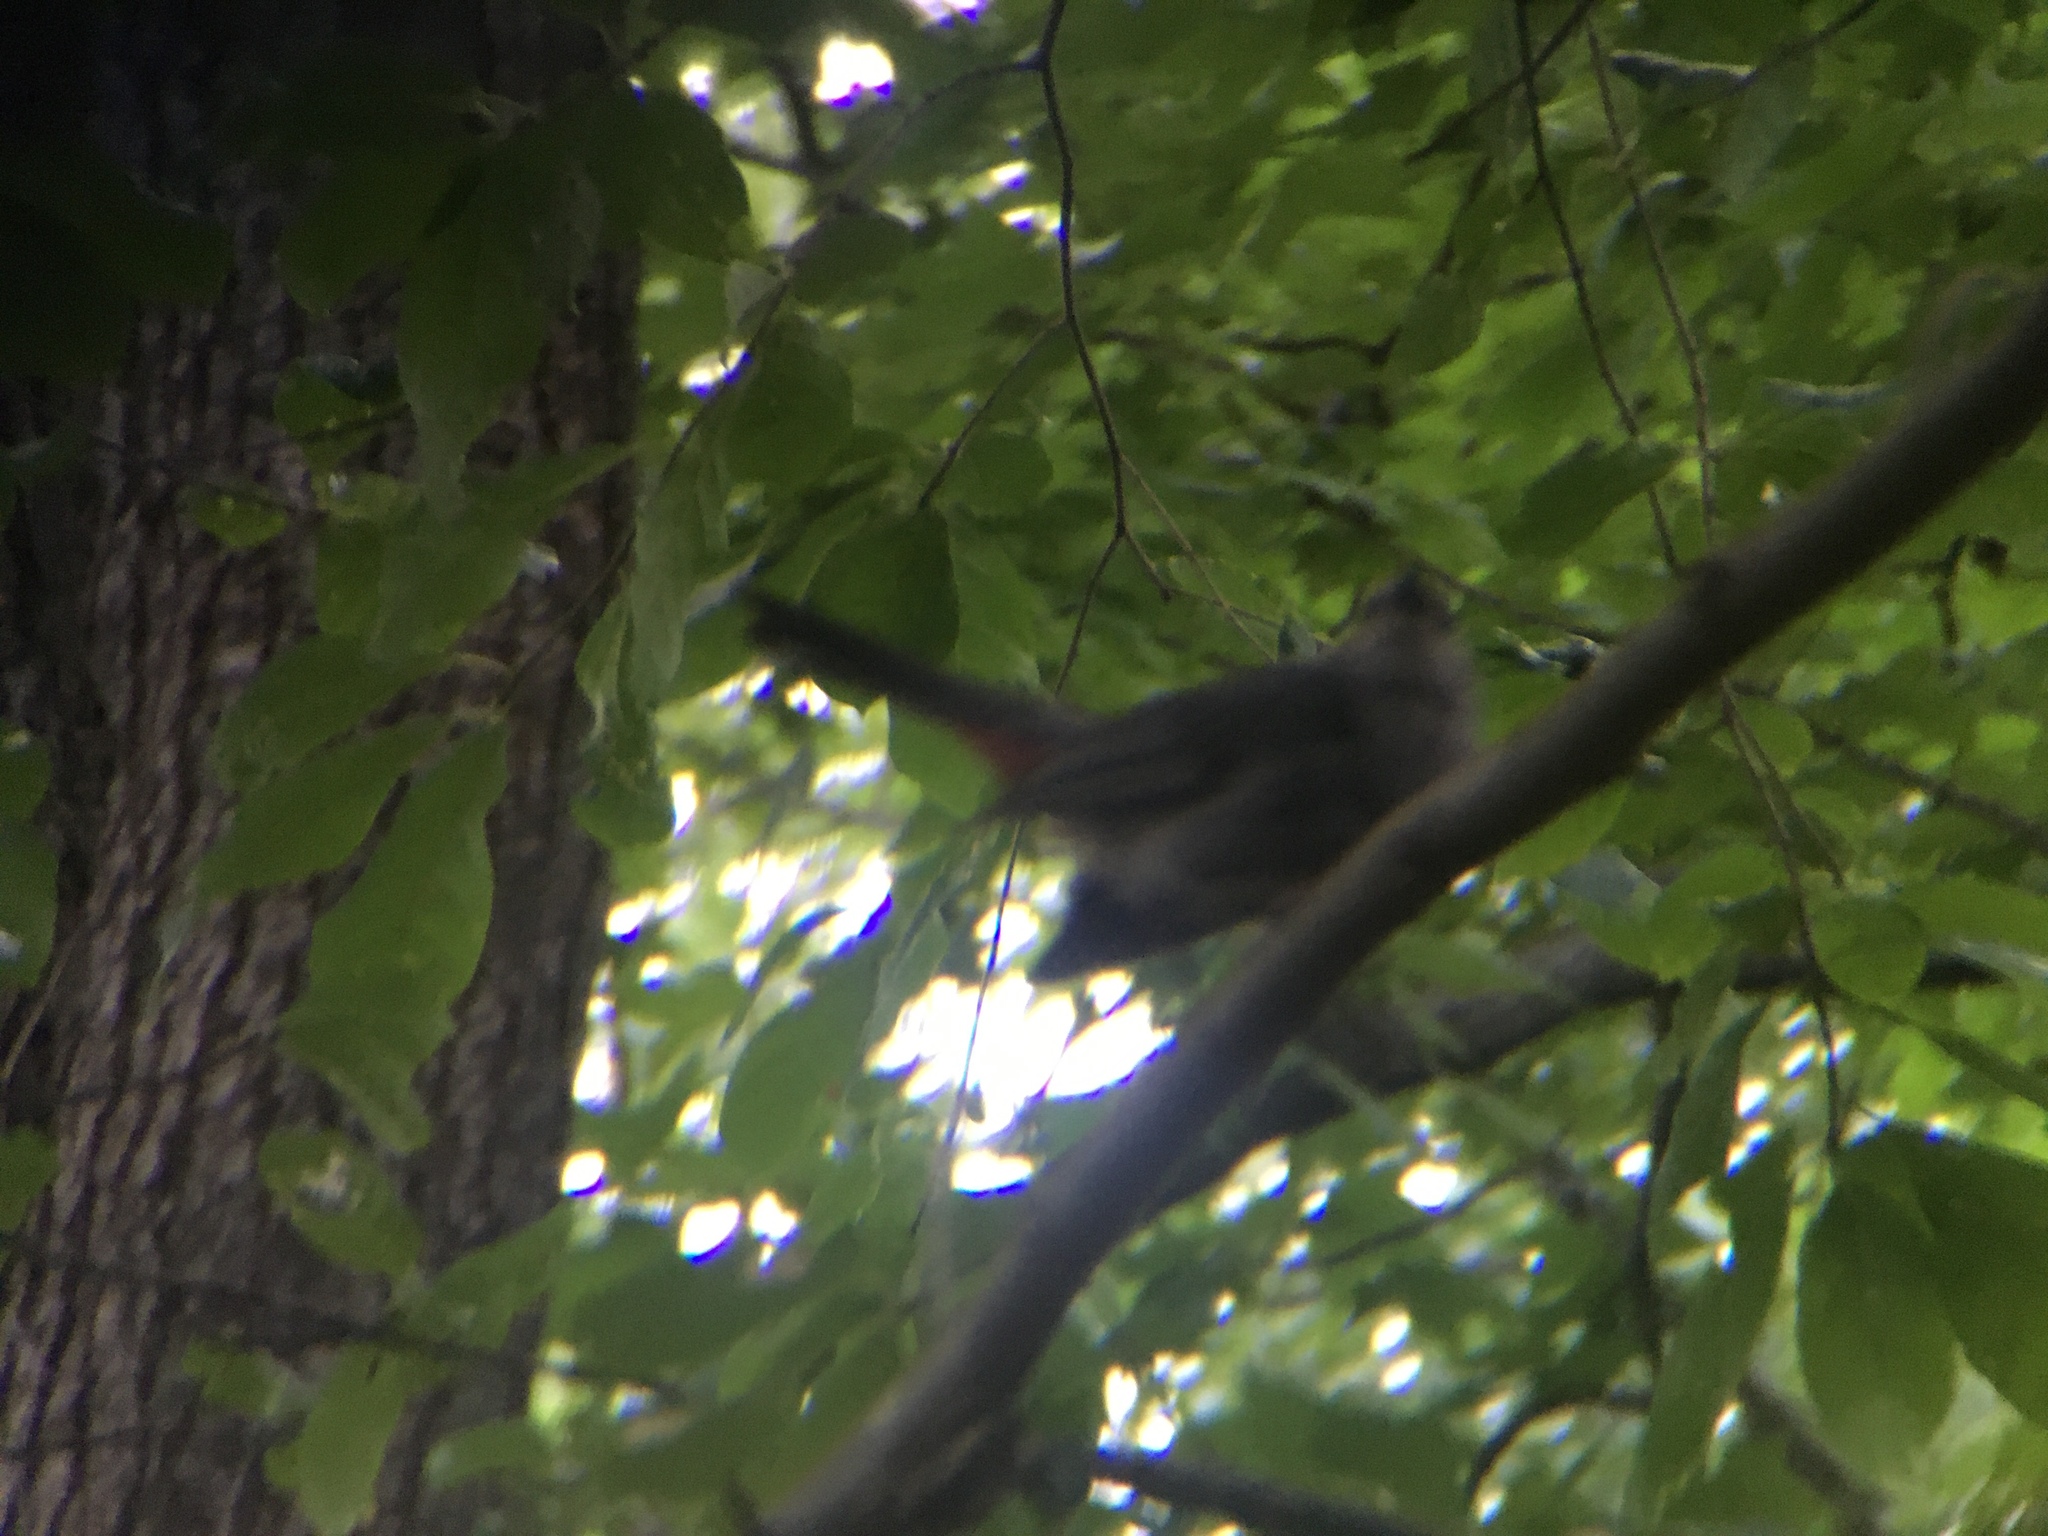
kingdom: Animalia
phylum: Chordata
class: Aves
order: Passeriformes
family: Mimidae
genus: Dumetella
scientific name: Dumetella carolinensis
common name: Gray catbird
